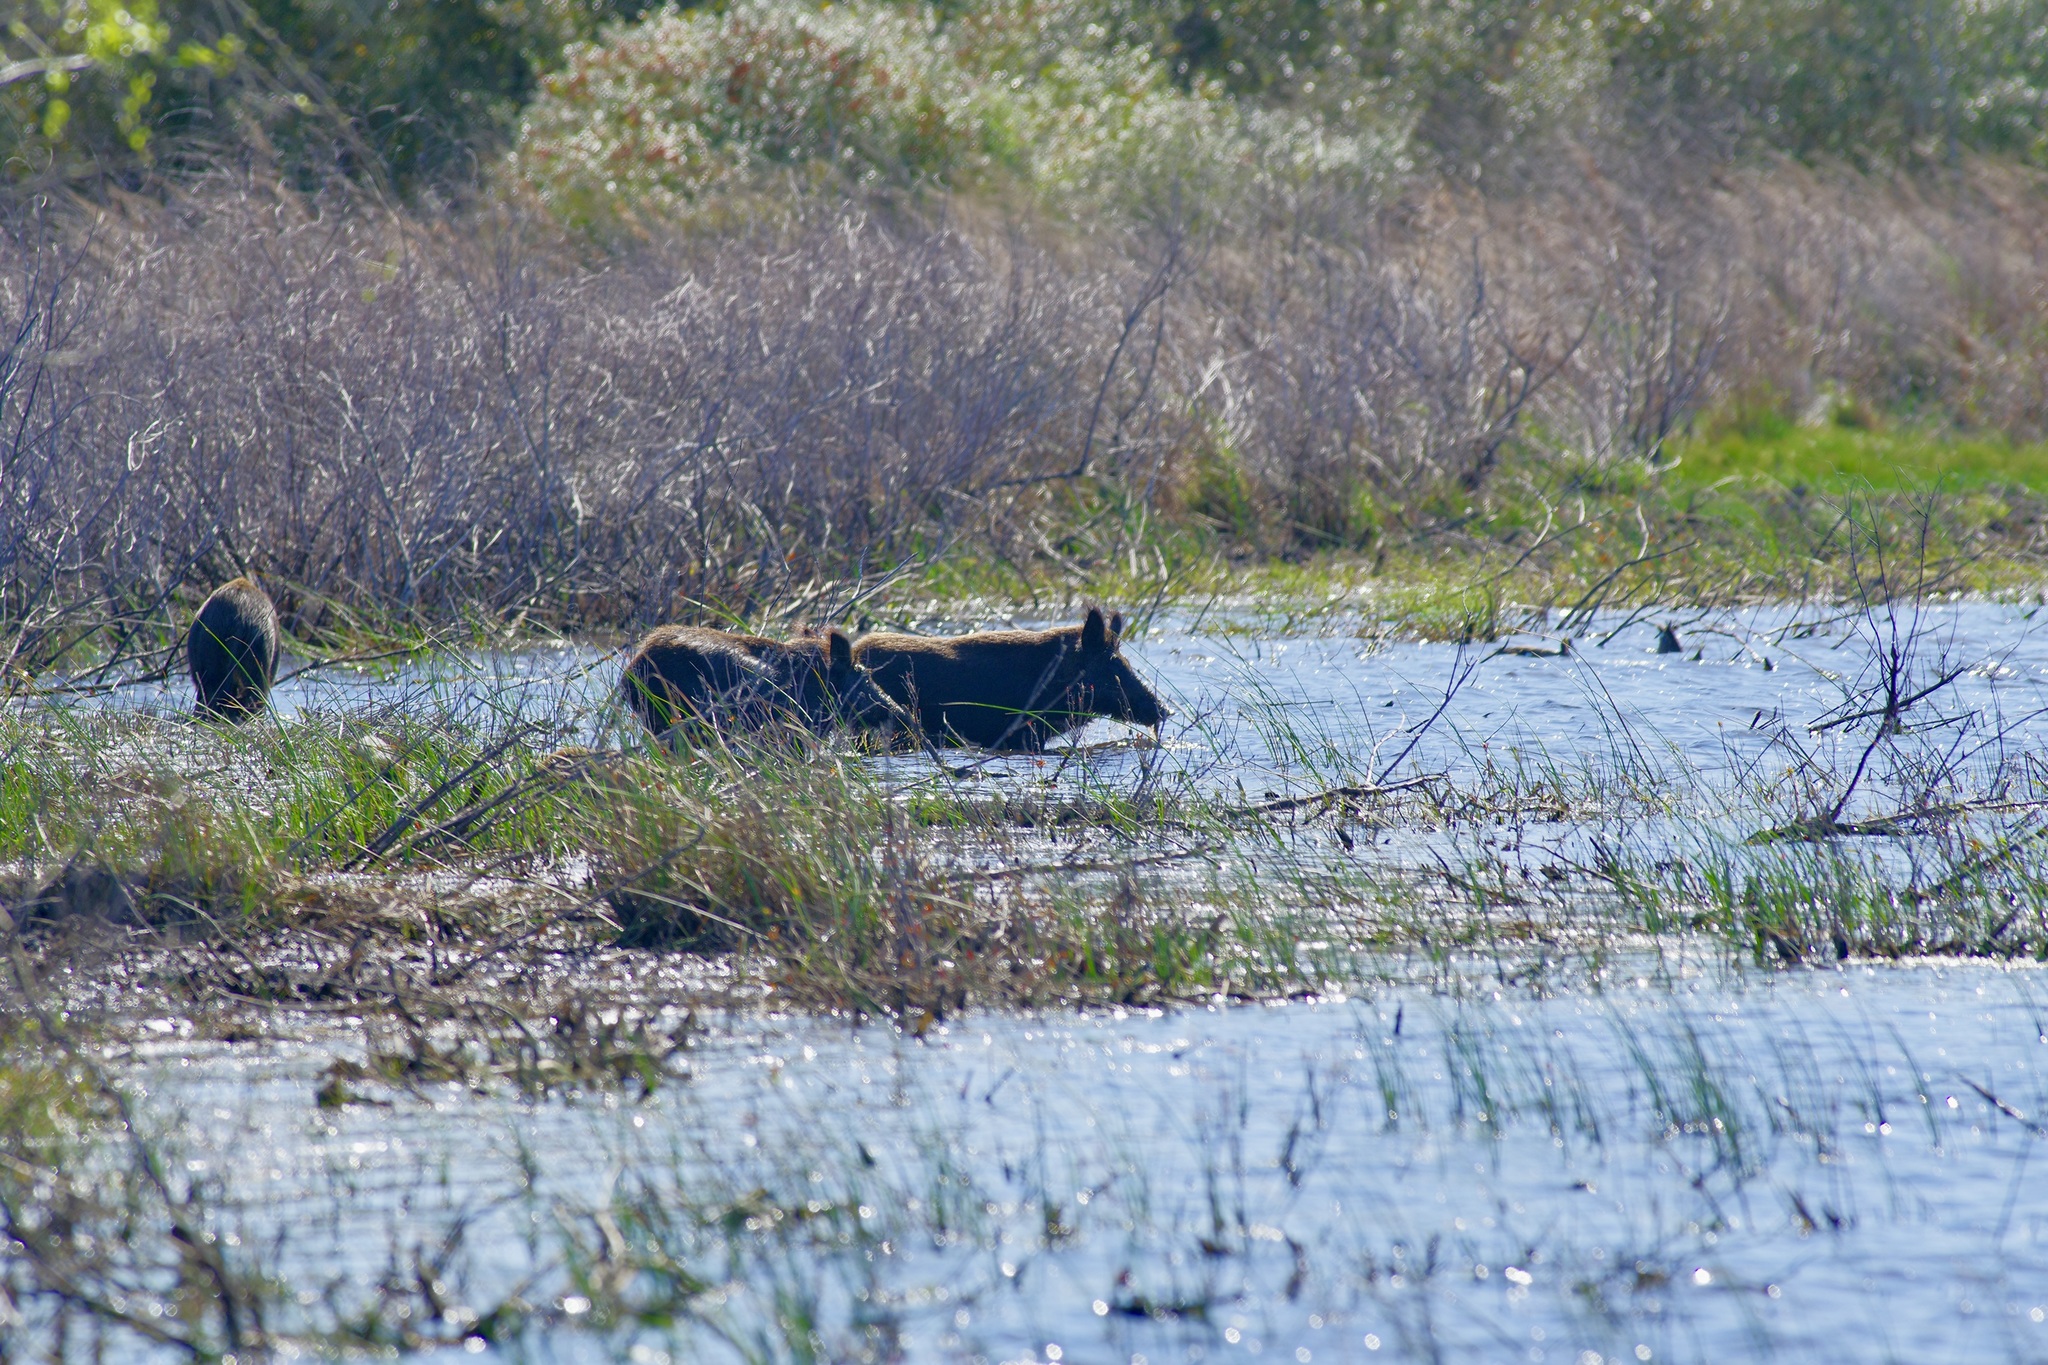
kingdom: Animalia
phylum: Chordata
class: Mammalia
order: Artiodactyla
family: Suidae
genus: Sus
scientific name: Sus scrofa
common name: Wild boar
